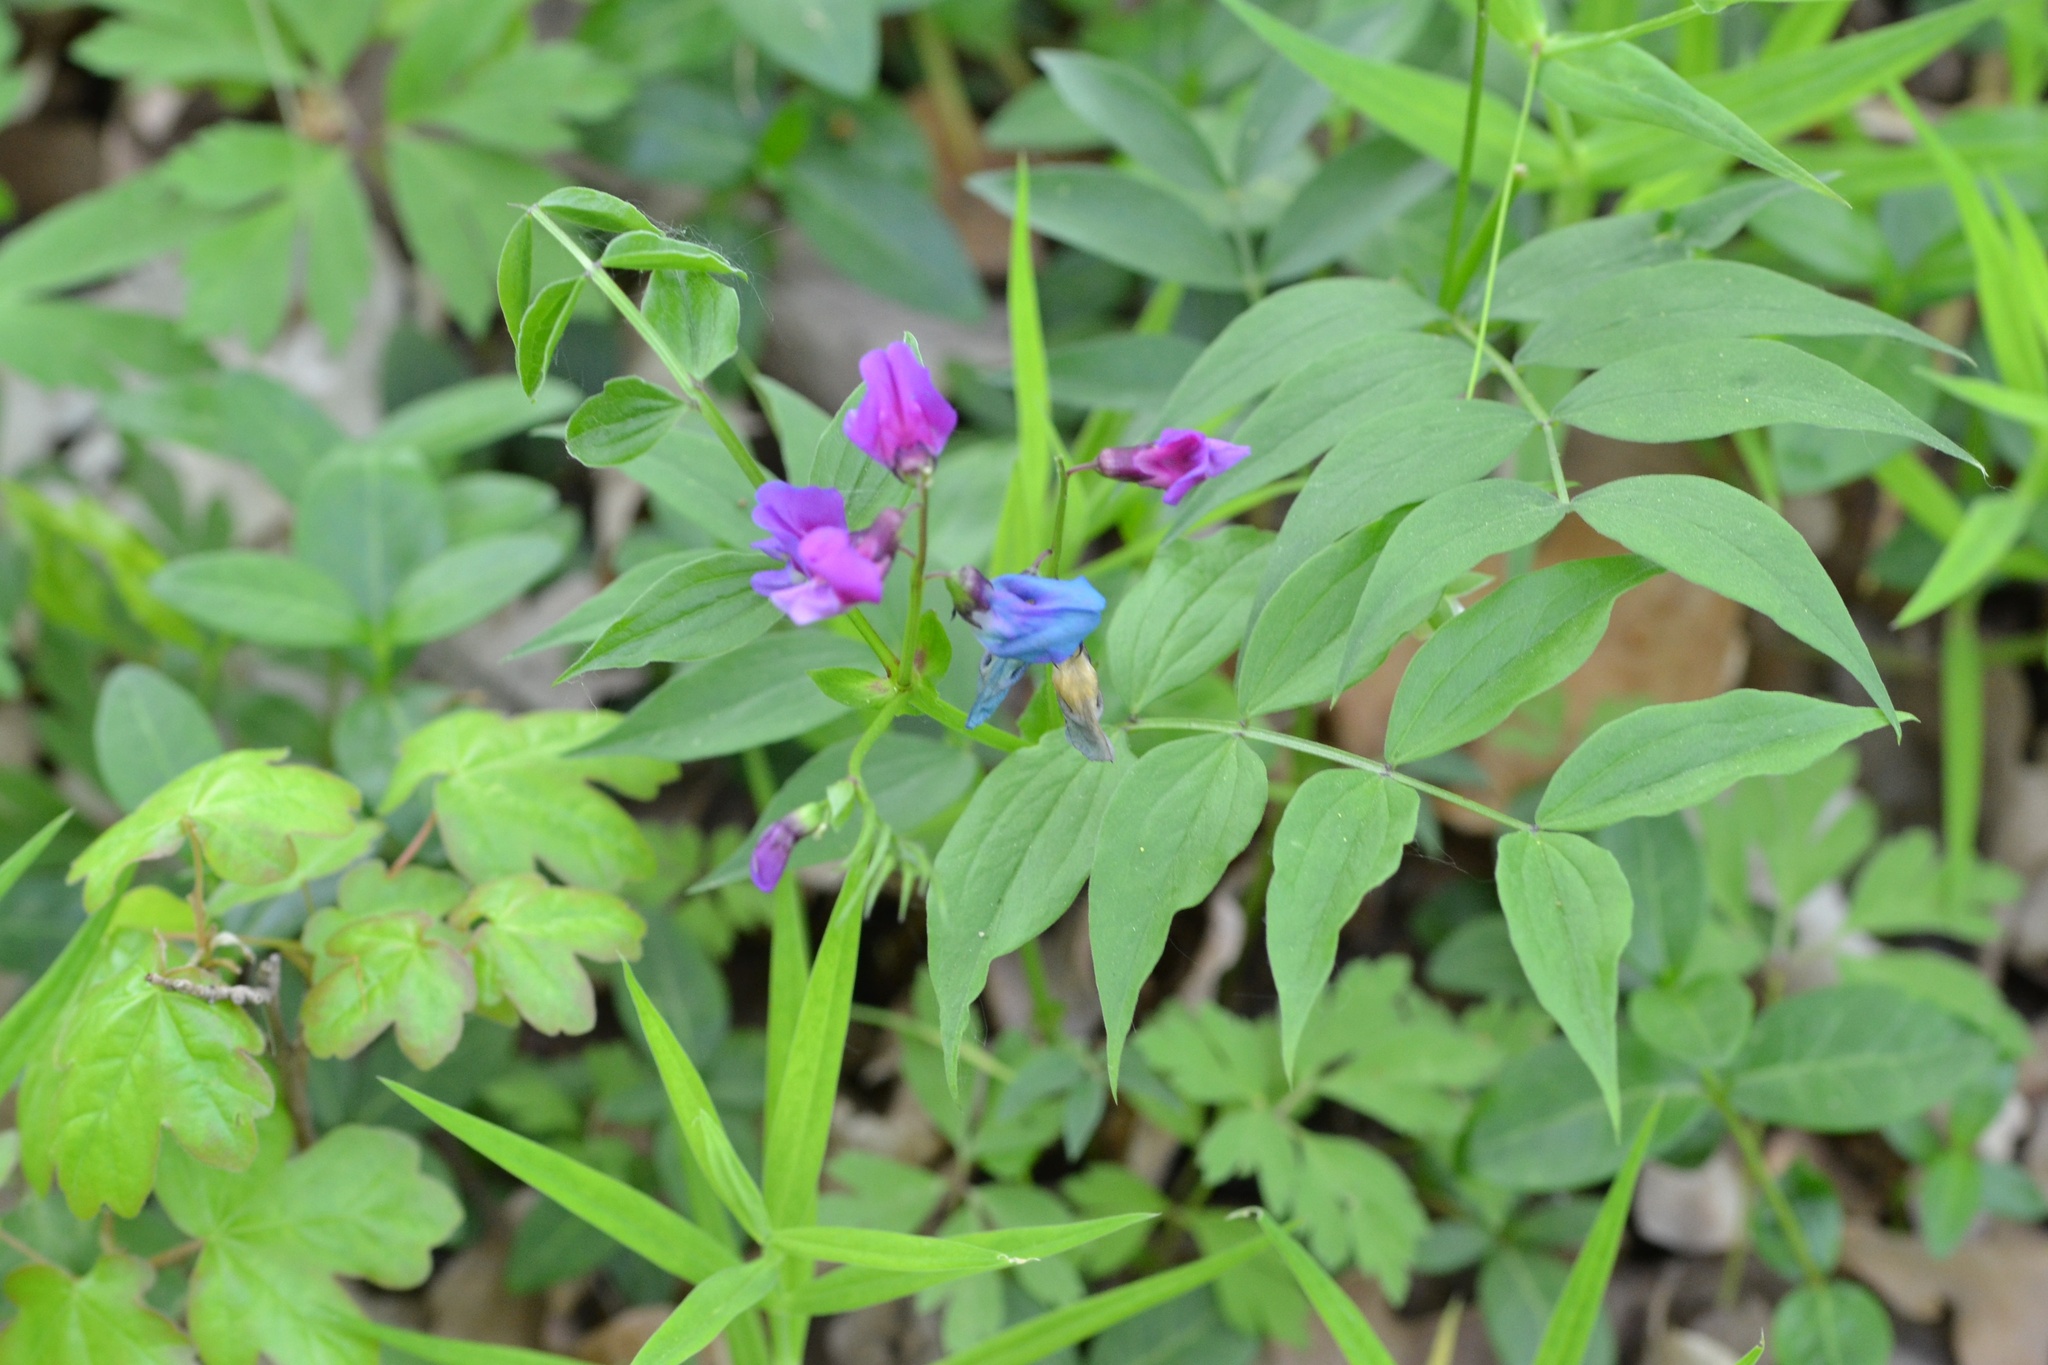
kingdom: Plantae
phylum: Tracheophyta
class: Magnoliopsida
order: Fabales
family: Fabaceae
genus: Lathyrus
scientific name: Lathyrus vernus
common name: Spring pea
